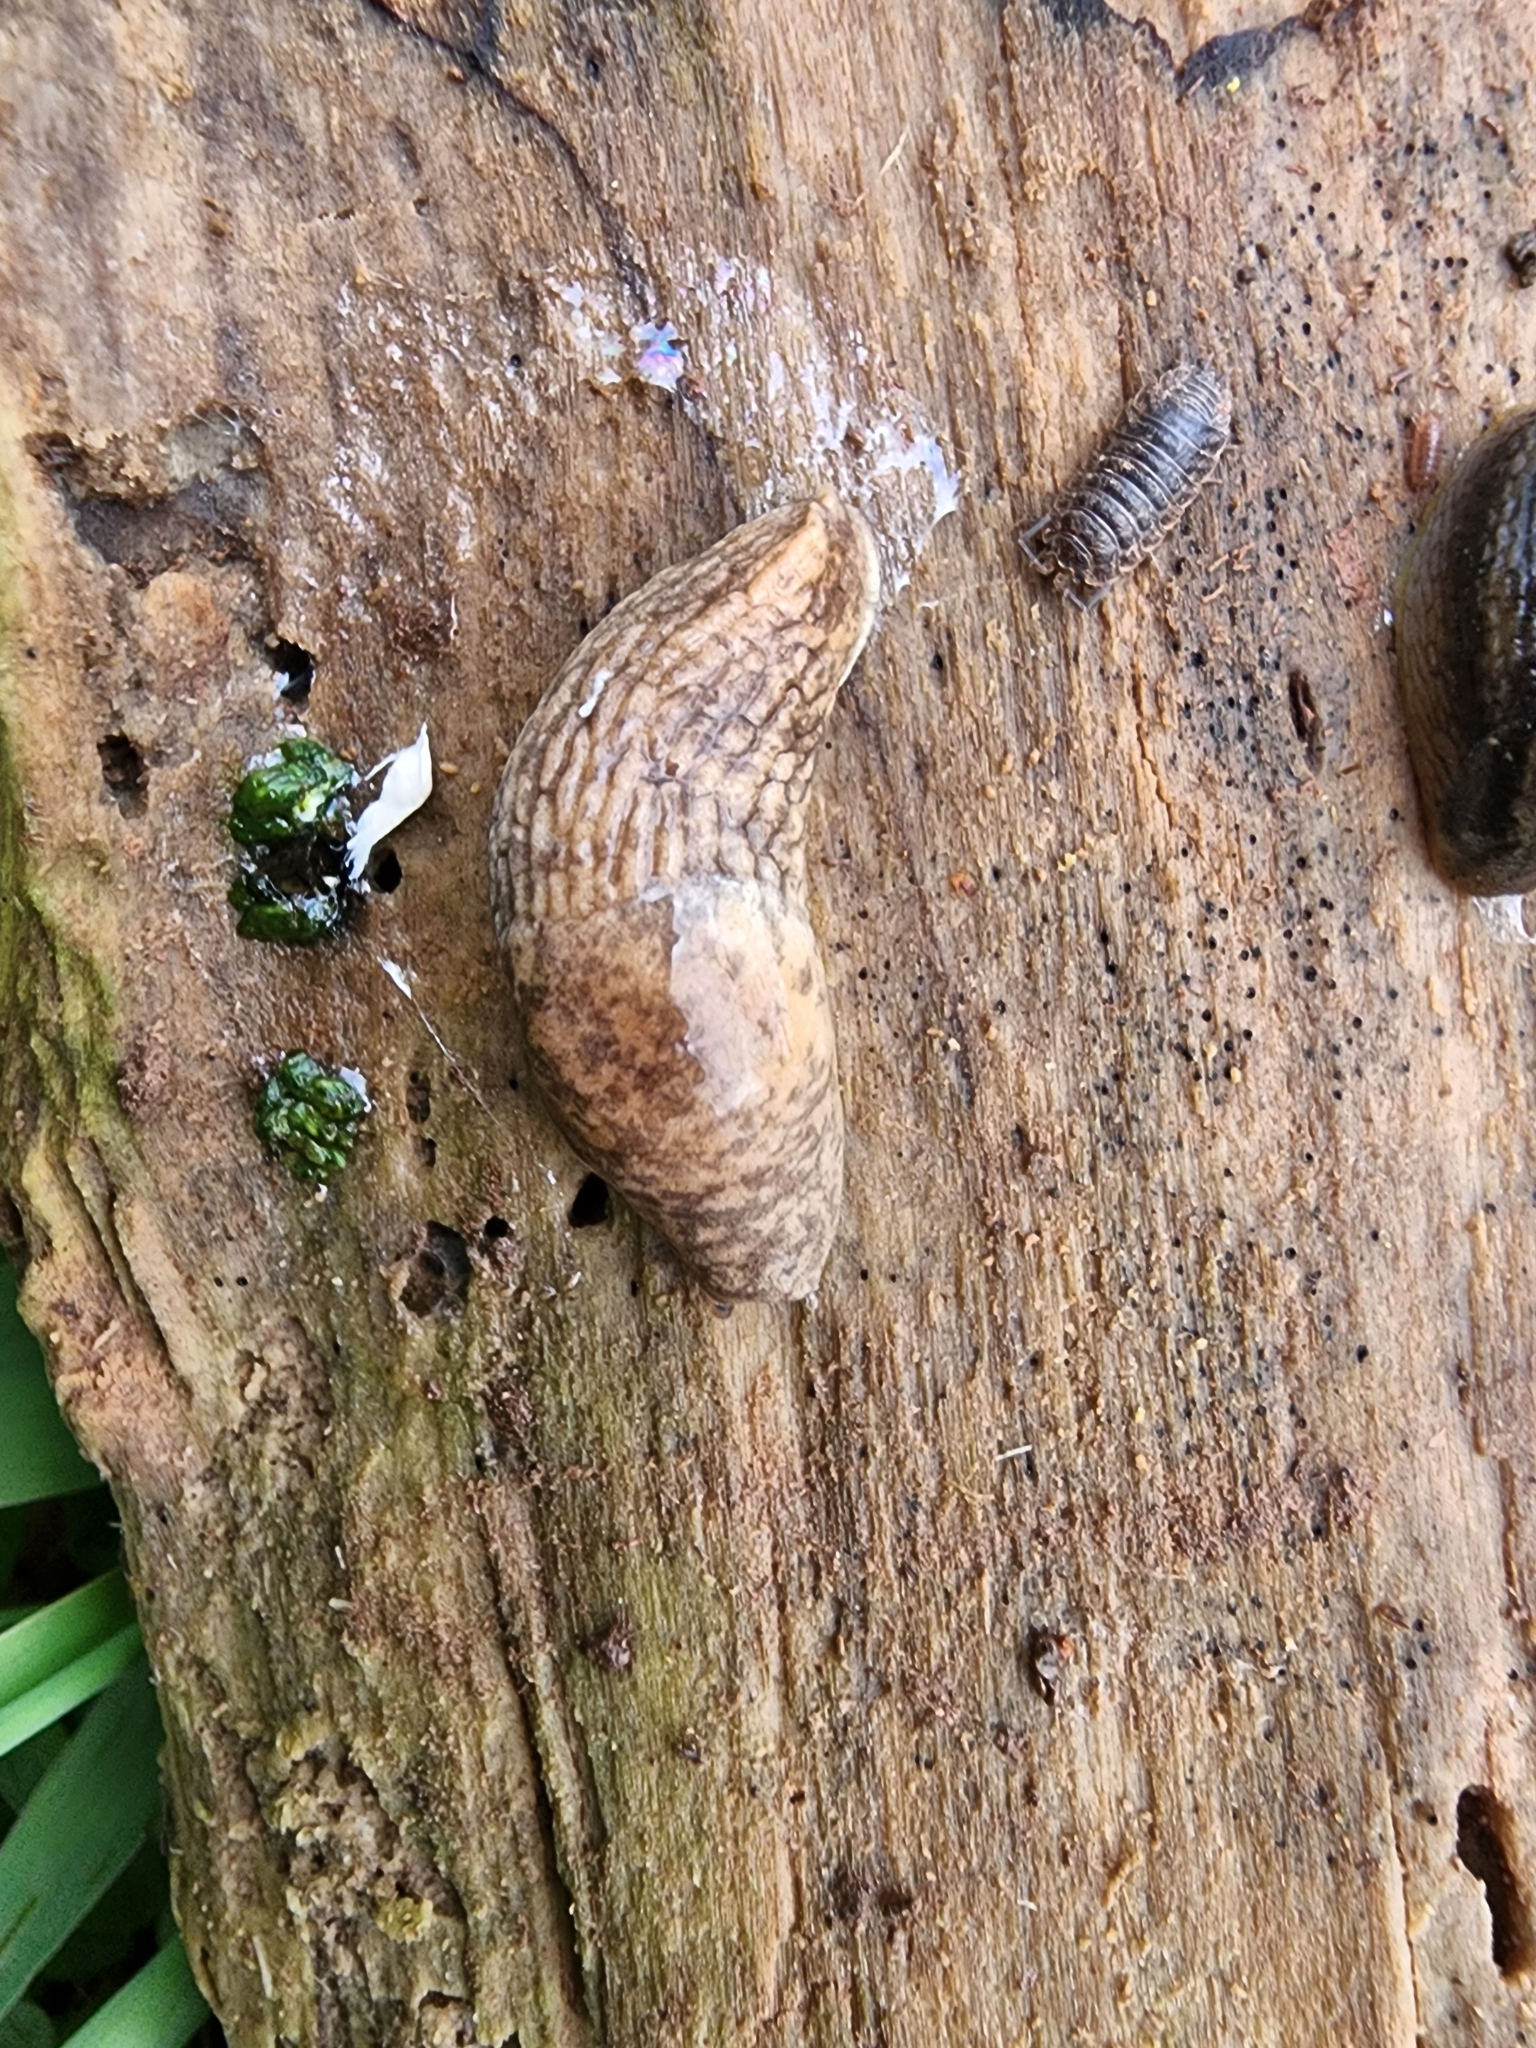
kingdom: Animalia
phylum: Mollusca
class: Gastropoda
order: Stylommatophora
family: Agriolimacidae
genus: Deroceras
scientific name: Deroceras reticulatum
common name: Gray field slug
